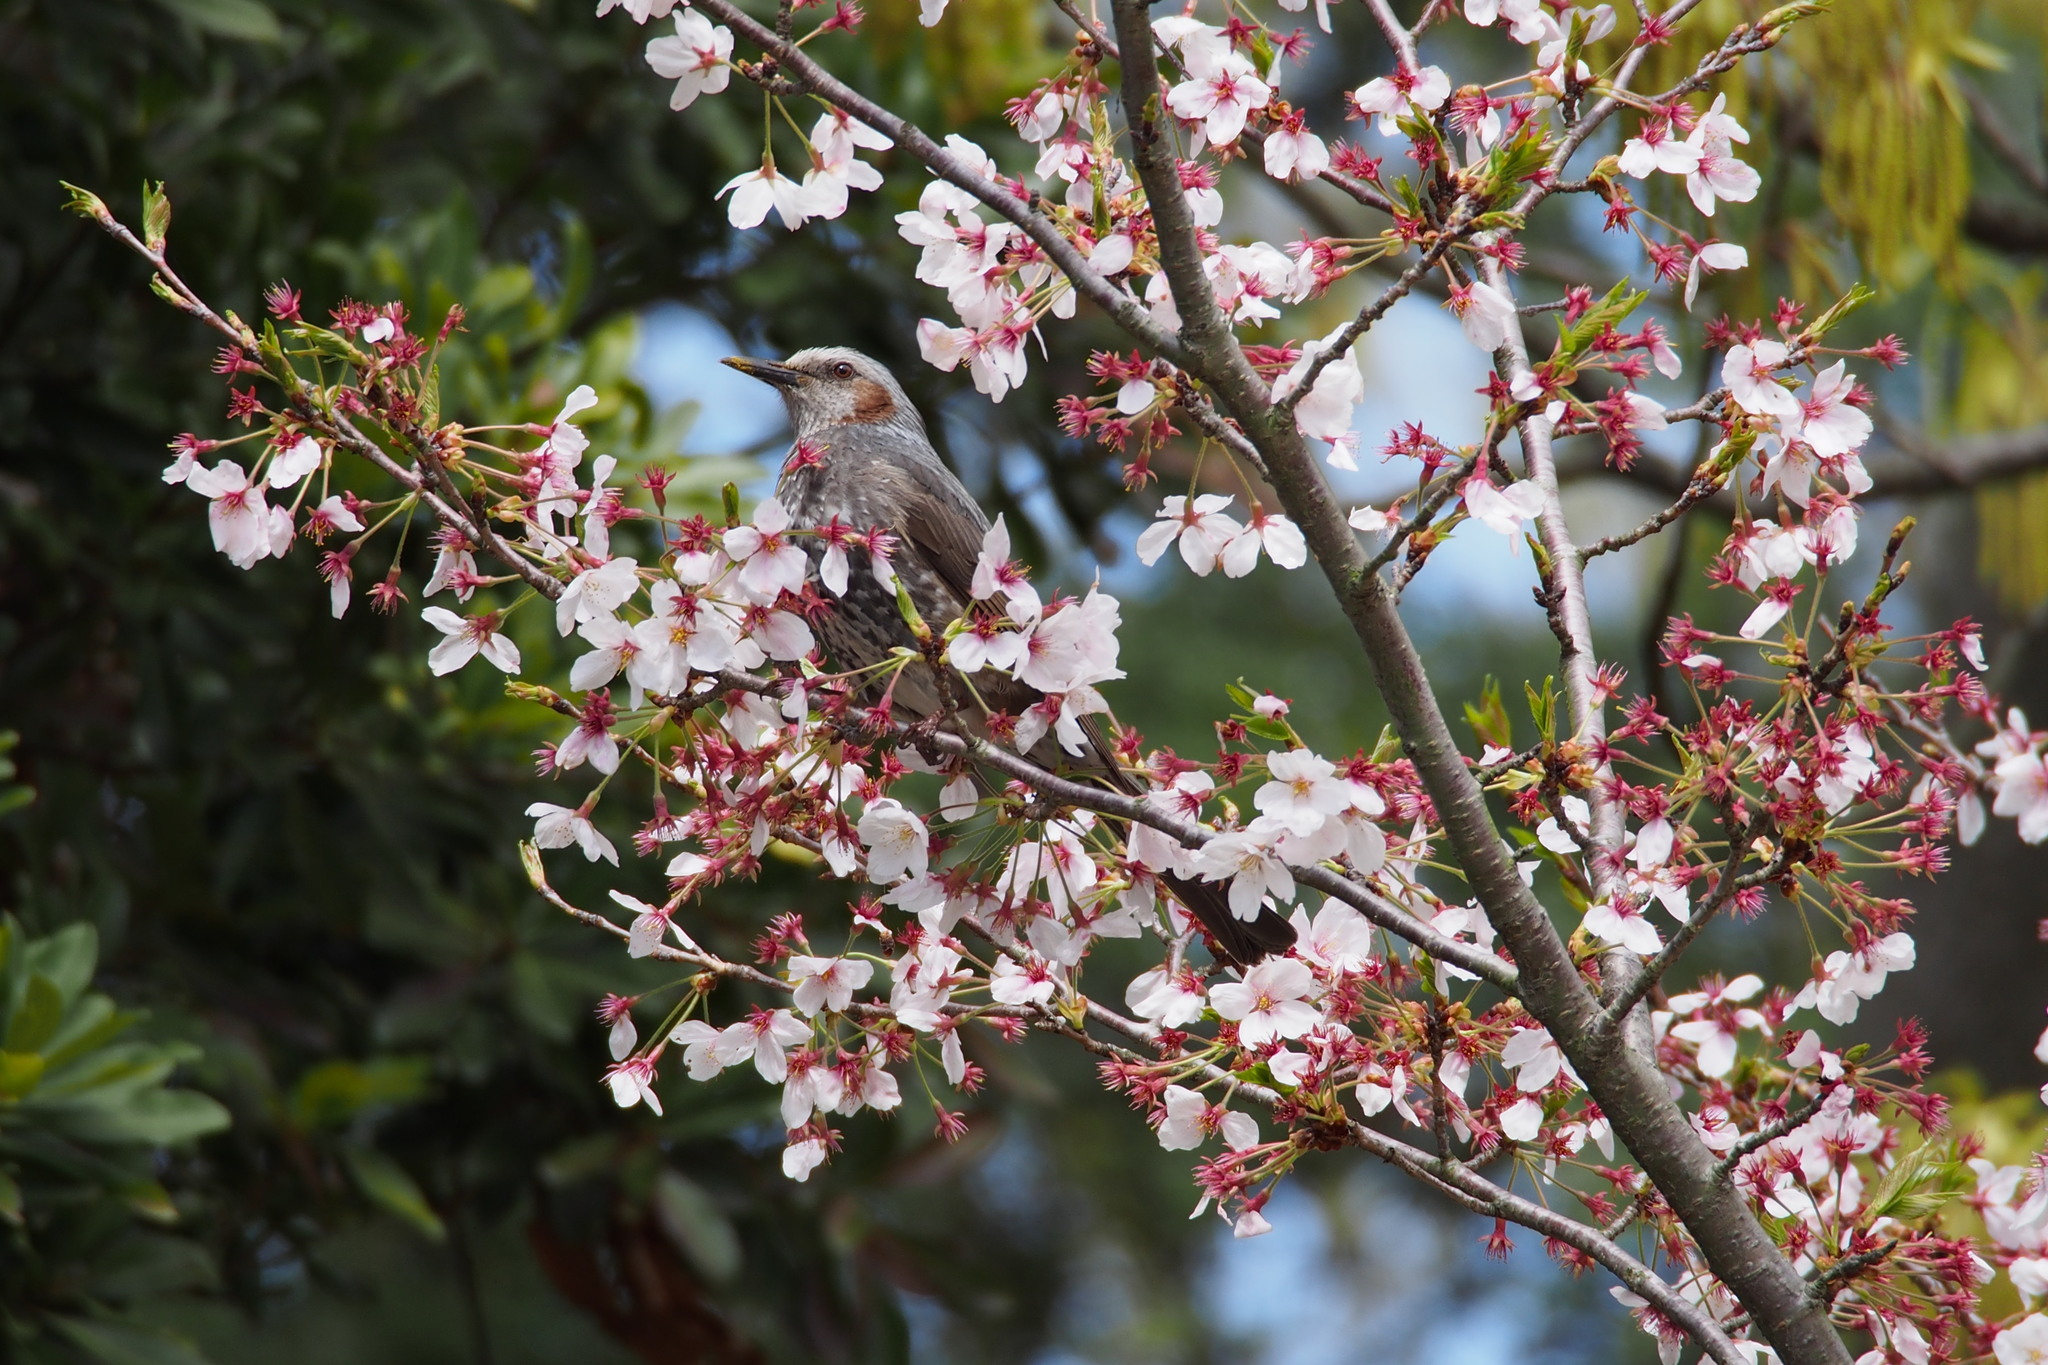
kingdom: Animalia
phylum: Chordata
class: Aves
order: Passeriformes
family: Pycnonotidae
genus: Hypsipetes
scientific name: Hypsipetes amaurotis
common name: Brown-eared bulbul
